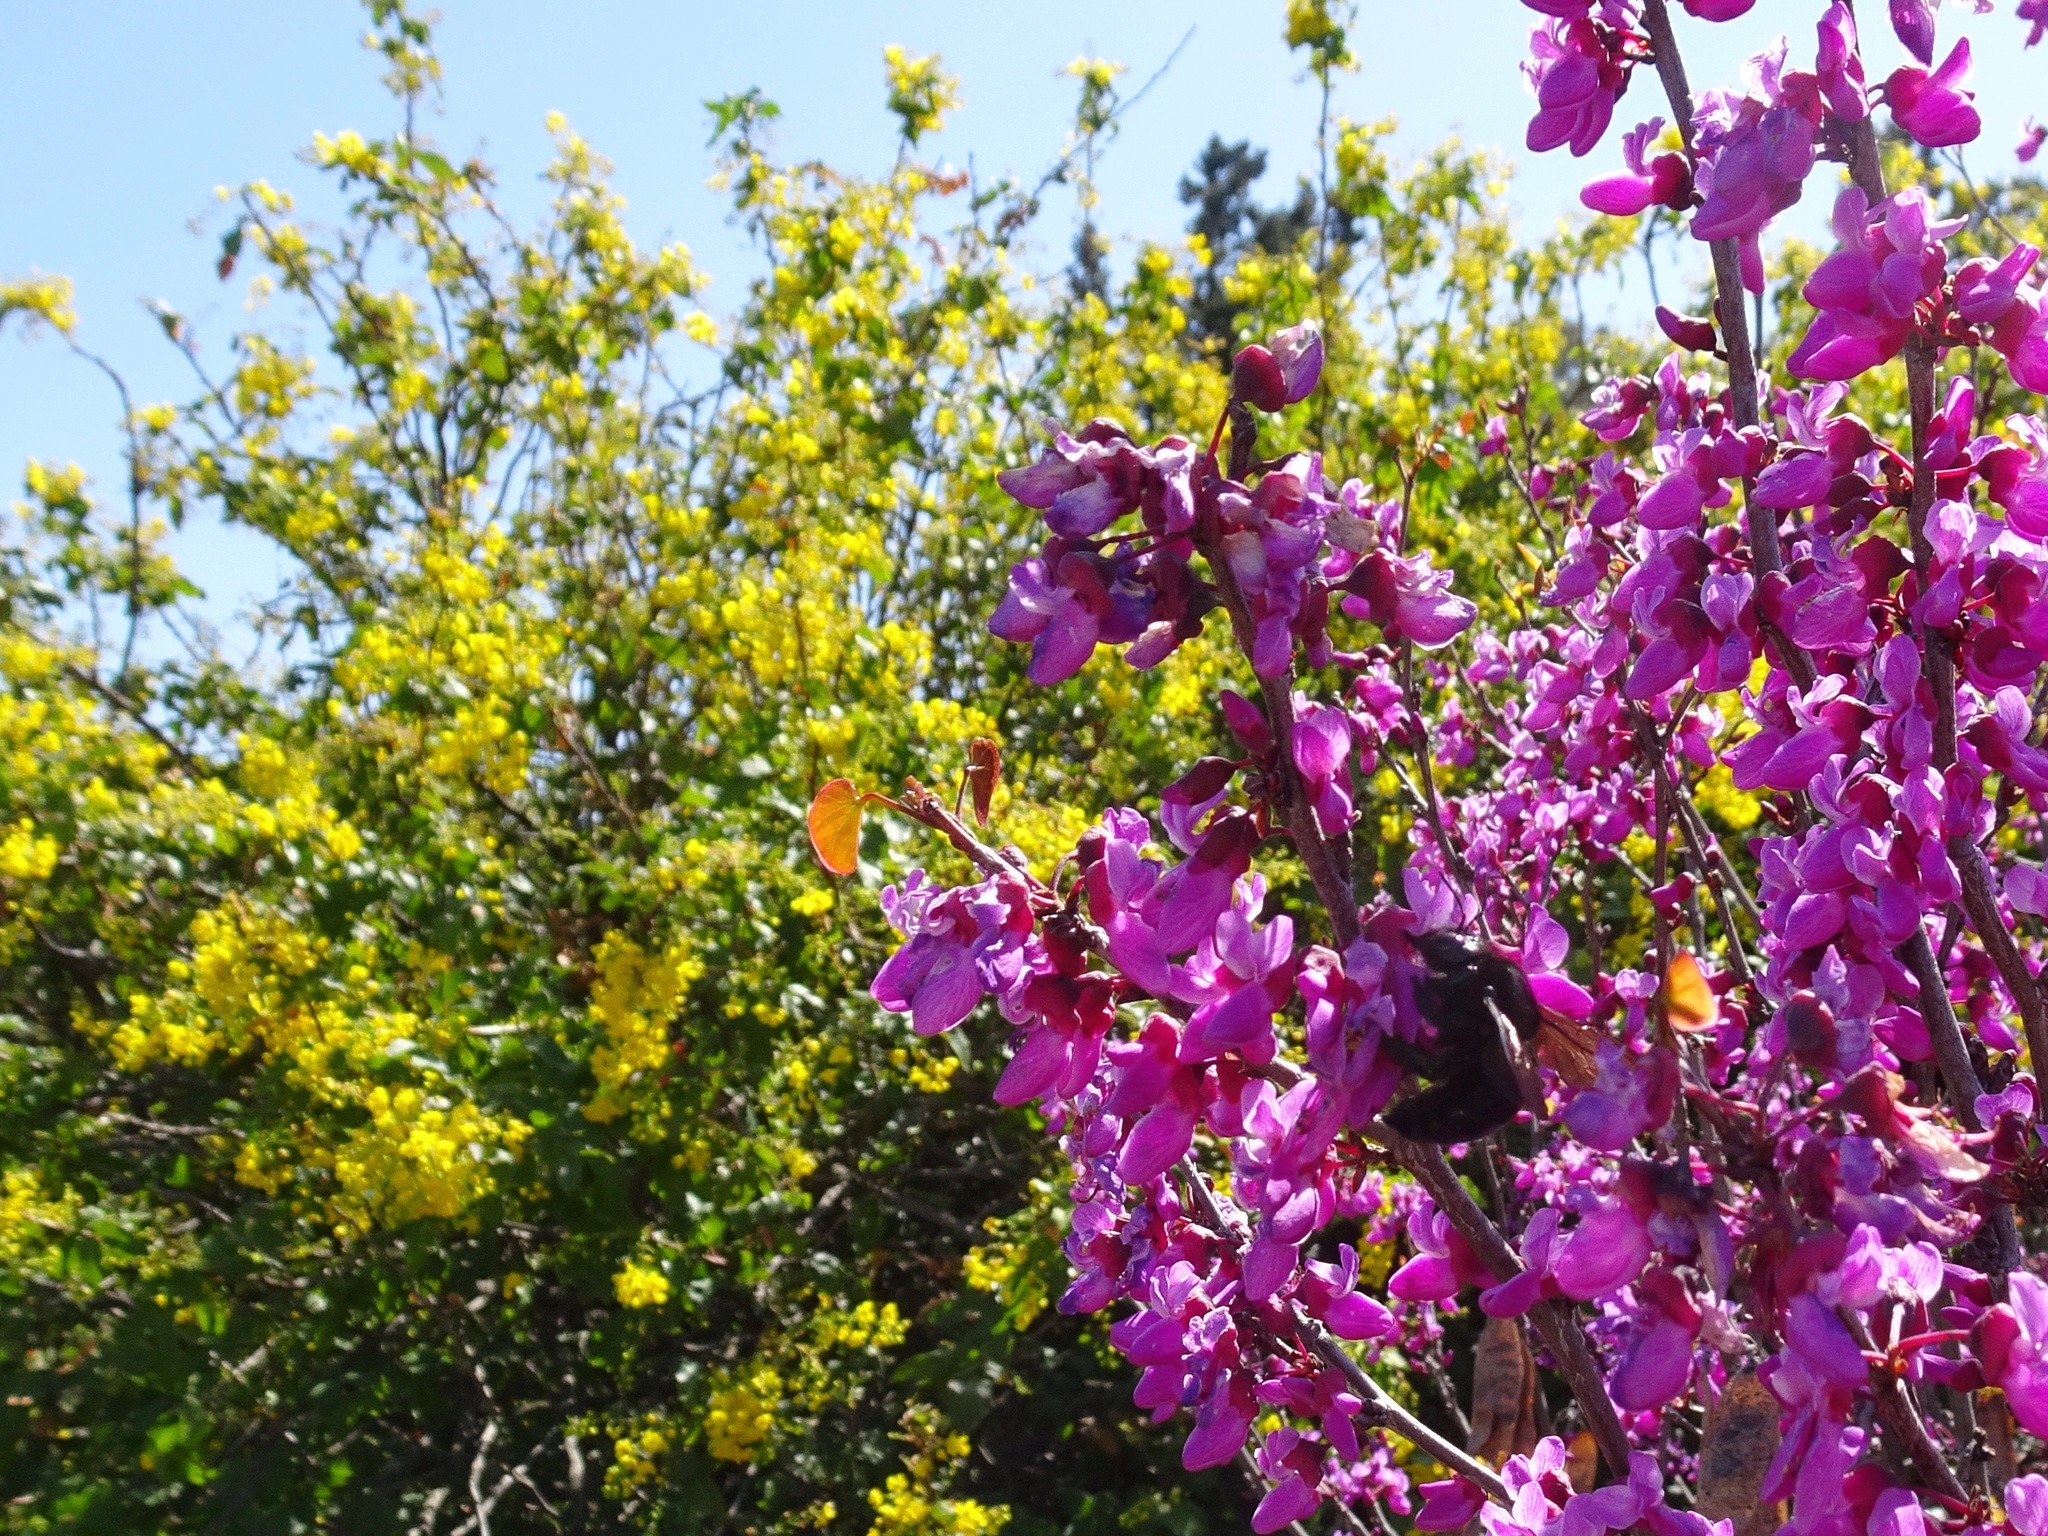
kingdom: Animalia
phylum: Arthropoda
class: Insecta
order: Hymenoptera
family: Apidae
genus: Xylocopa
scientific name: Xylocopa sonorina
